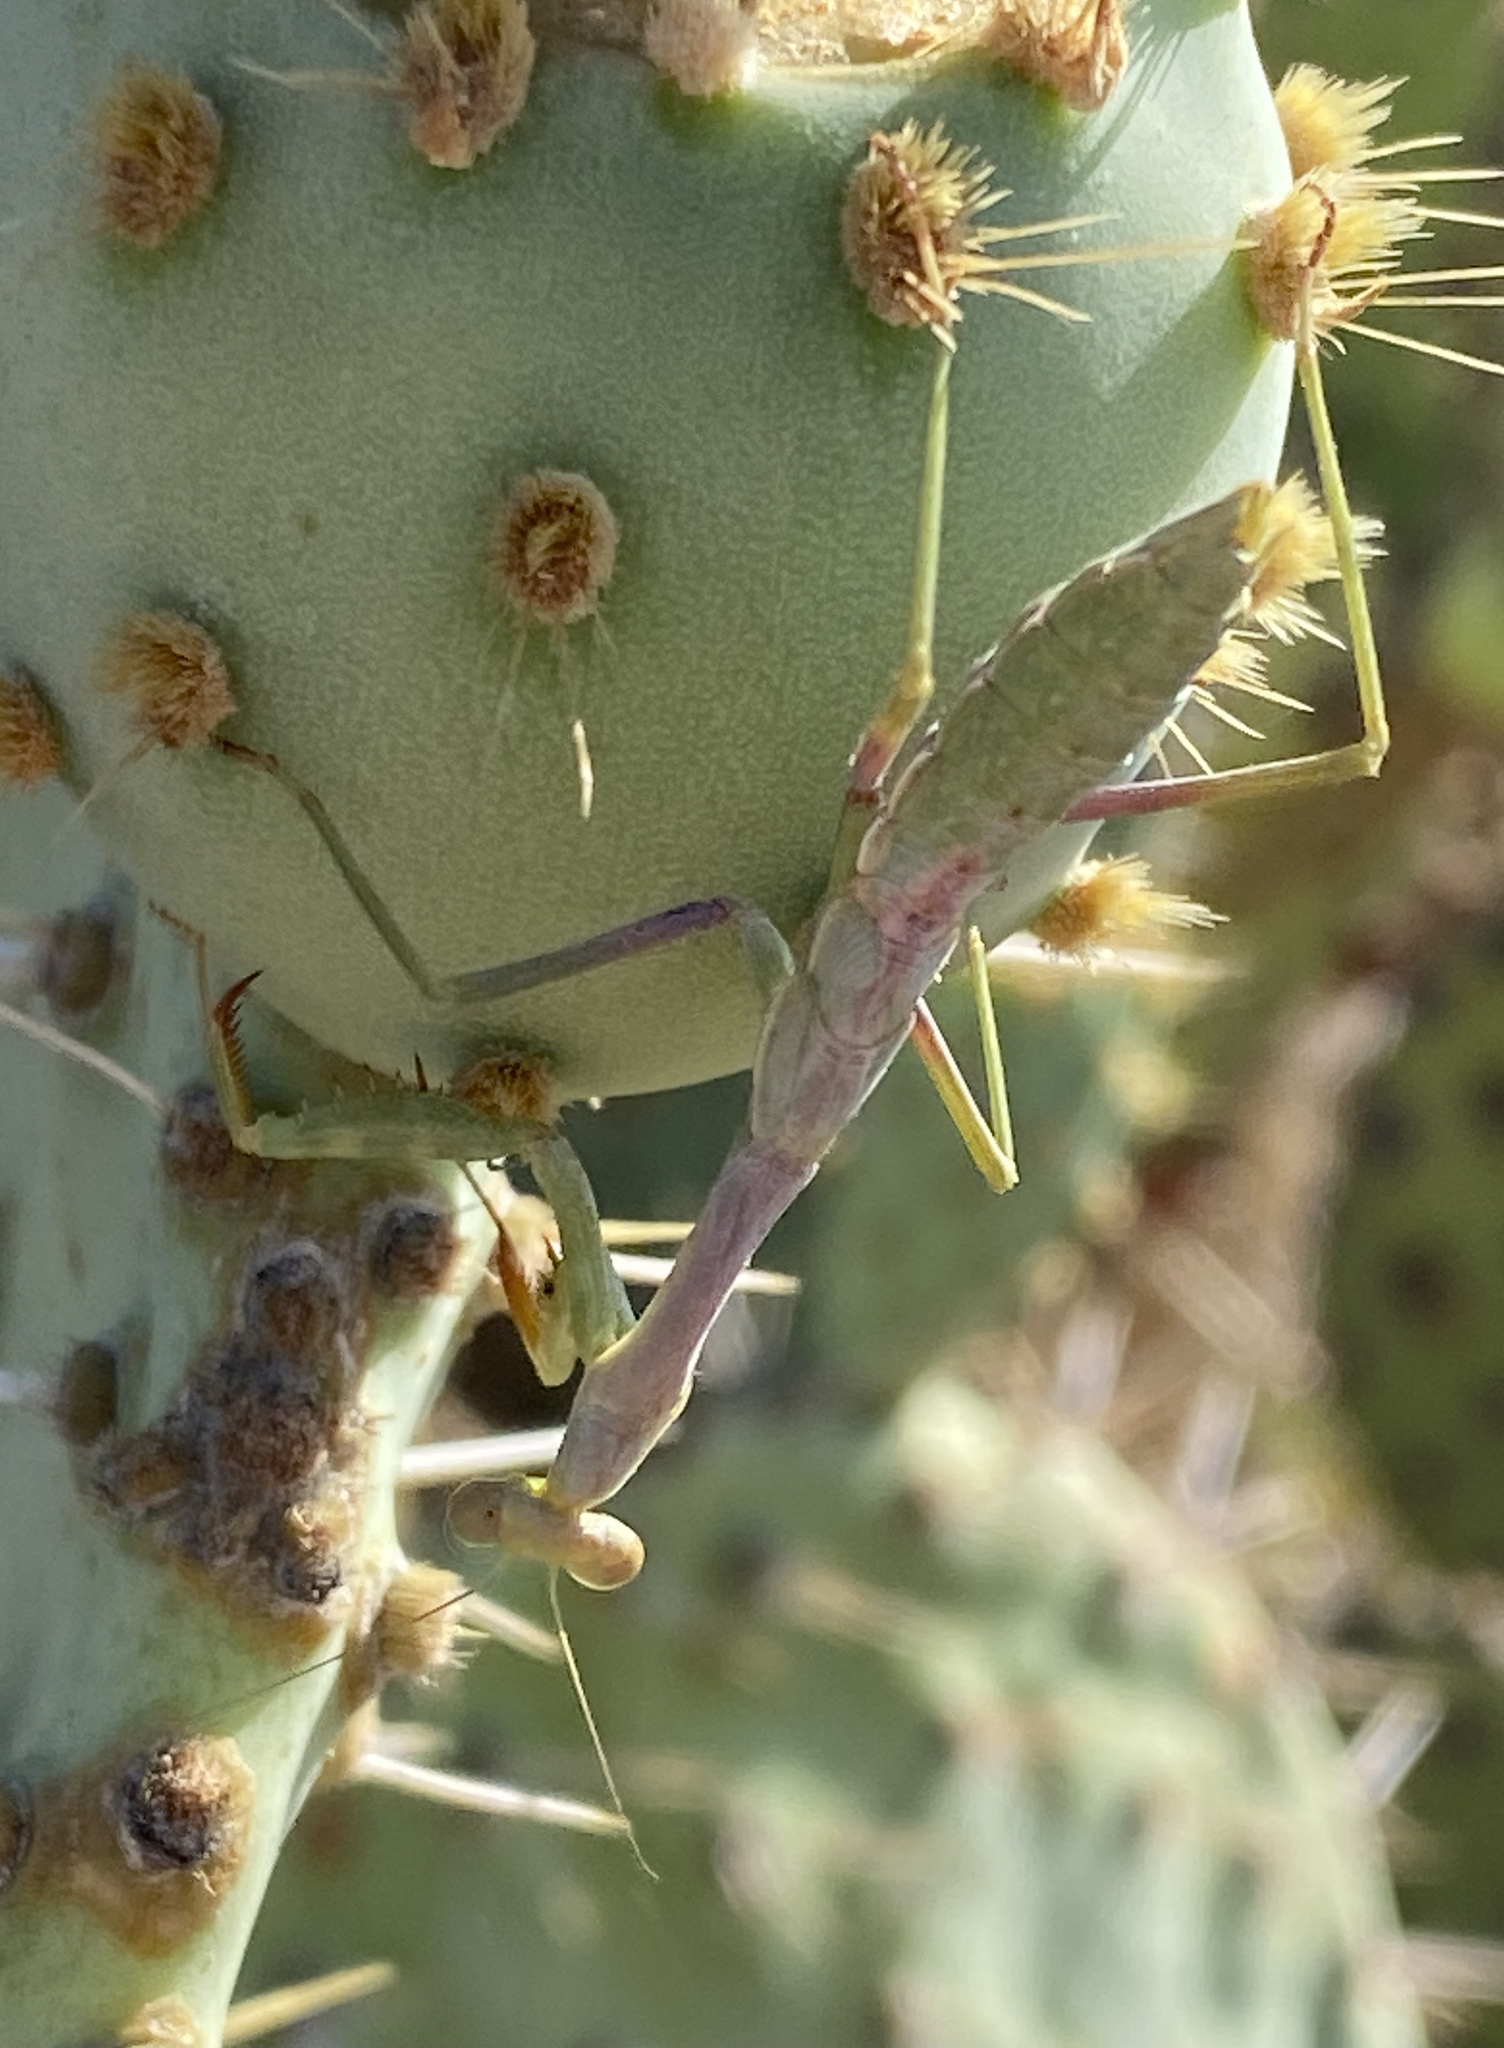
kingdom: Animalia
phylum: Arthropoda
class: Insecta
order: Mantodea
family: Mantidae
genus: Stagmomantis
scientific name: Stagmomantis californica
